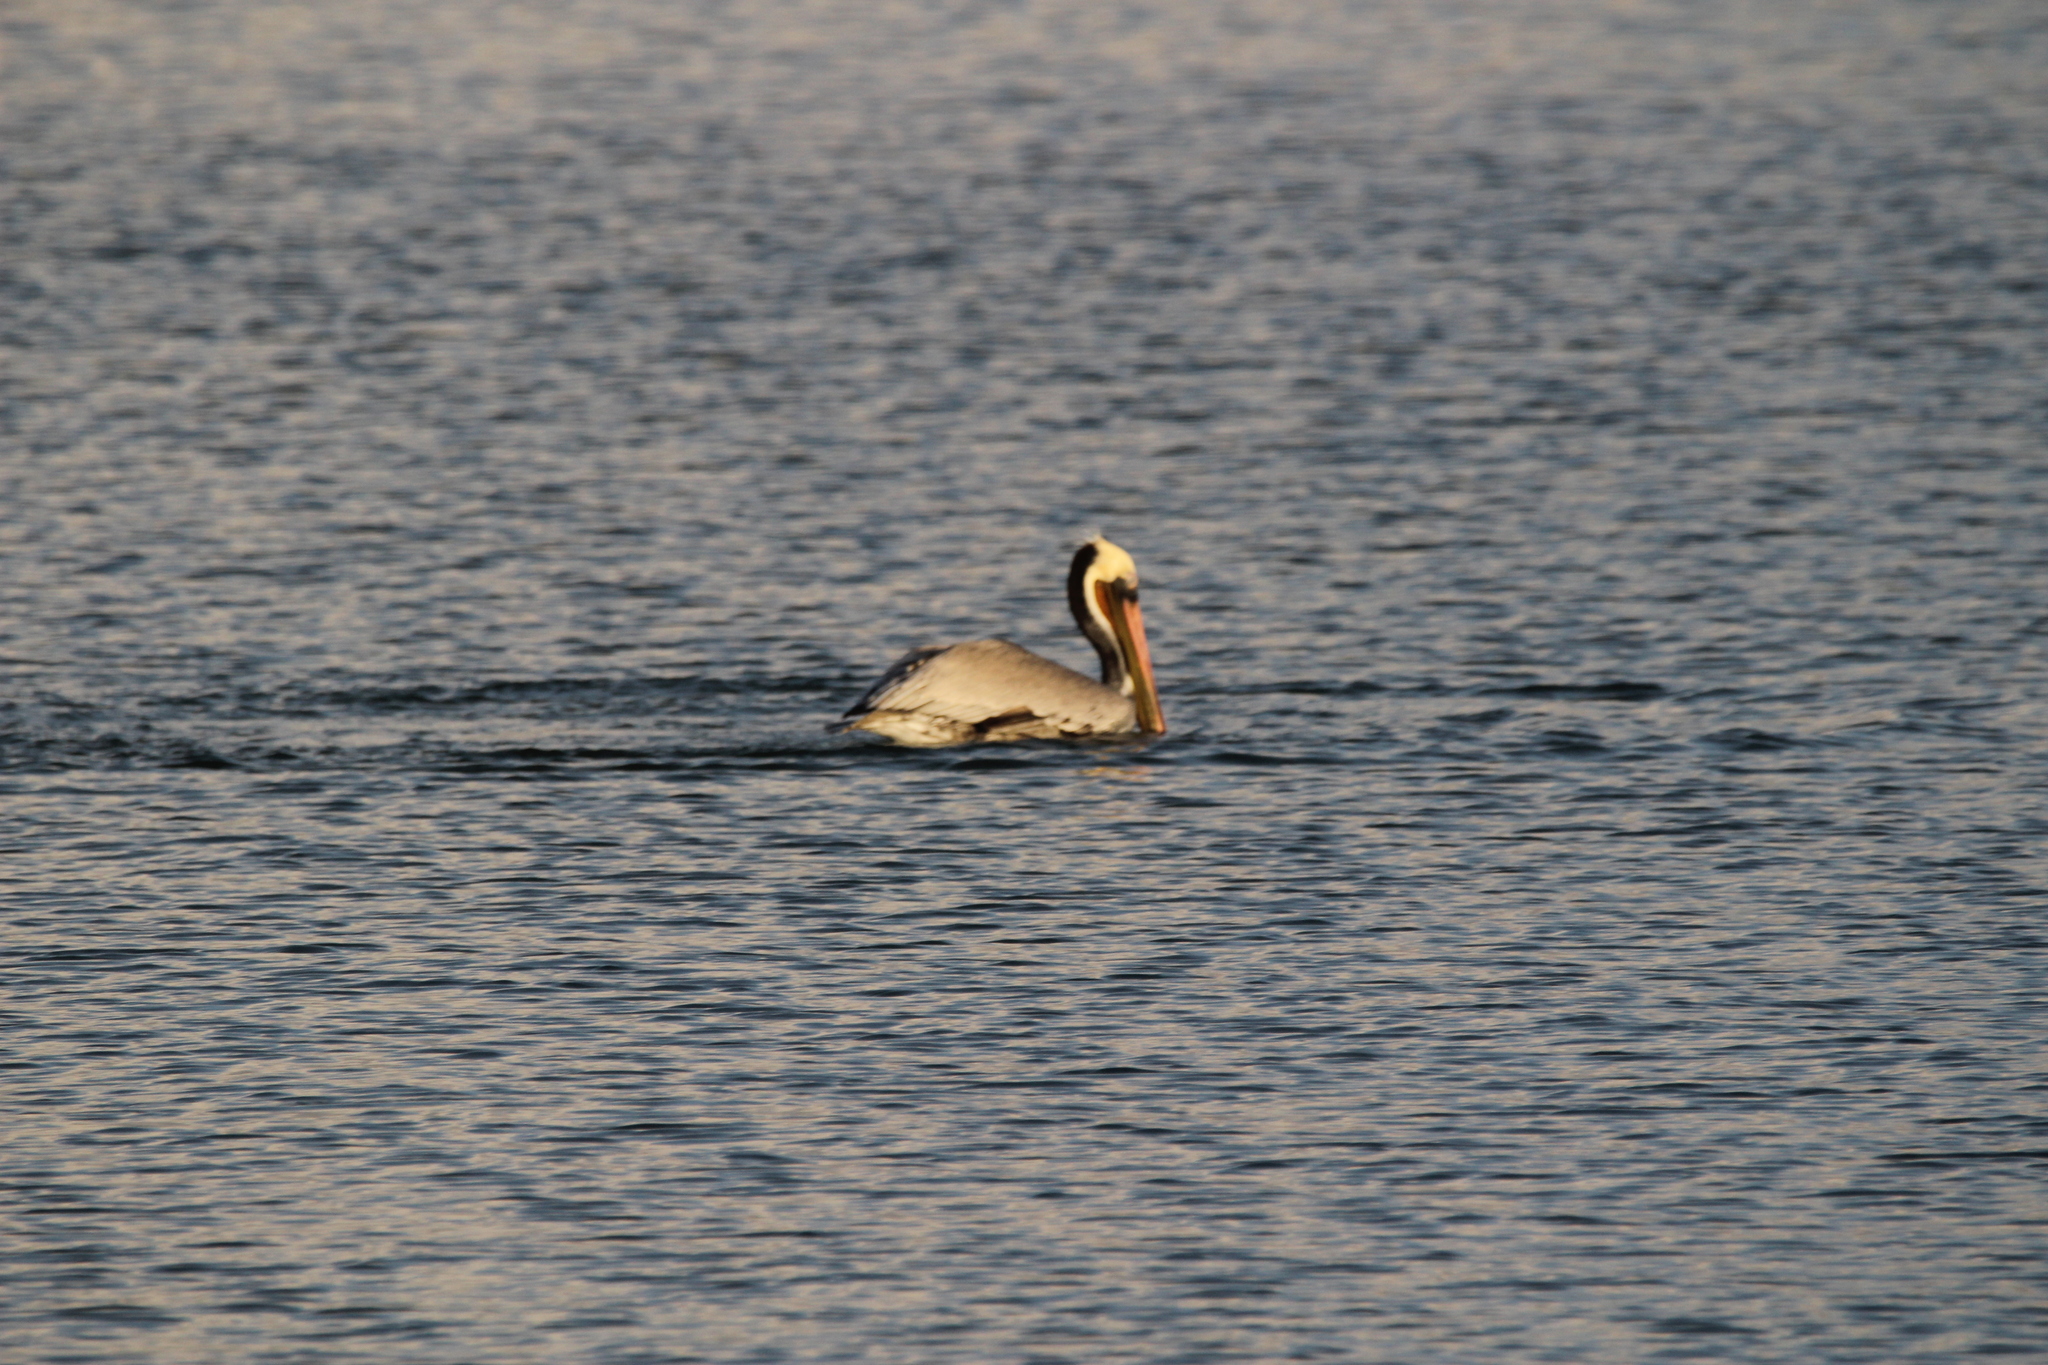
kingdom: Animalia
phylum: Chordata
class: Aves
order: Pelecaniformes
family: Pelecanidae
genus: Pelecanus
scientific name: Pelecanus occidentalis
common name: Brown pelican
